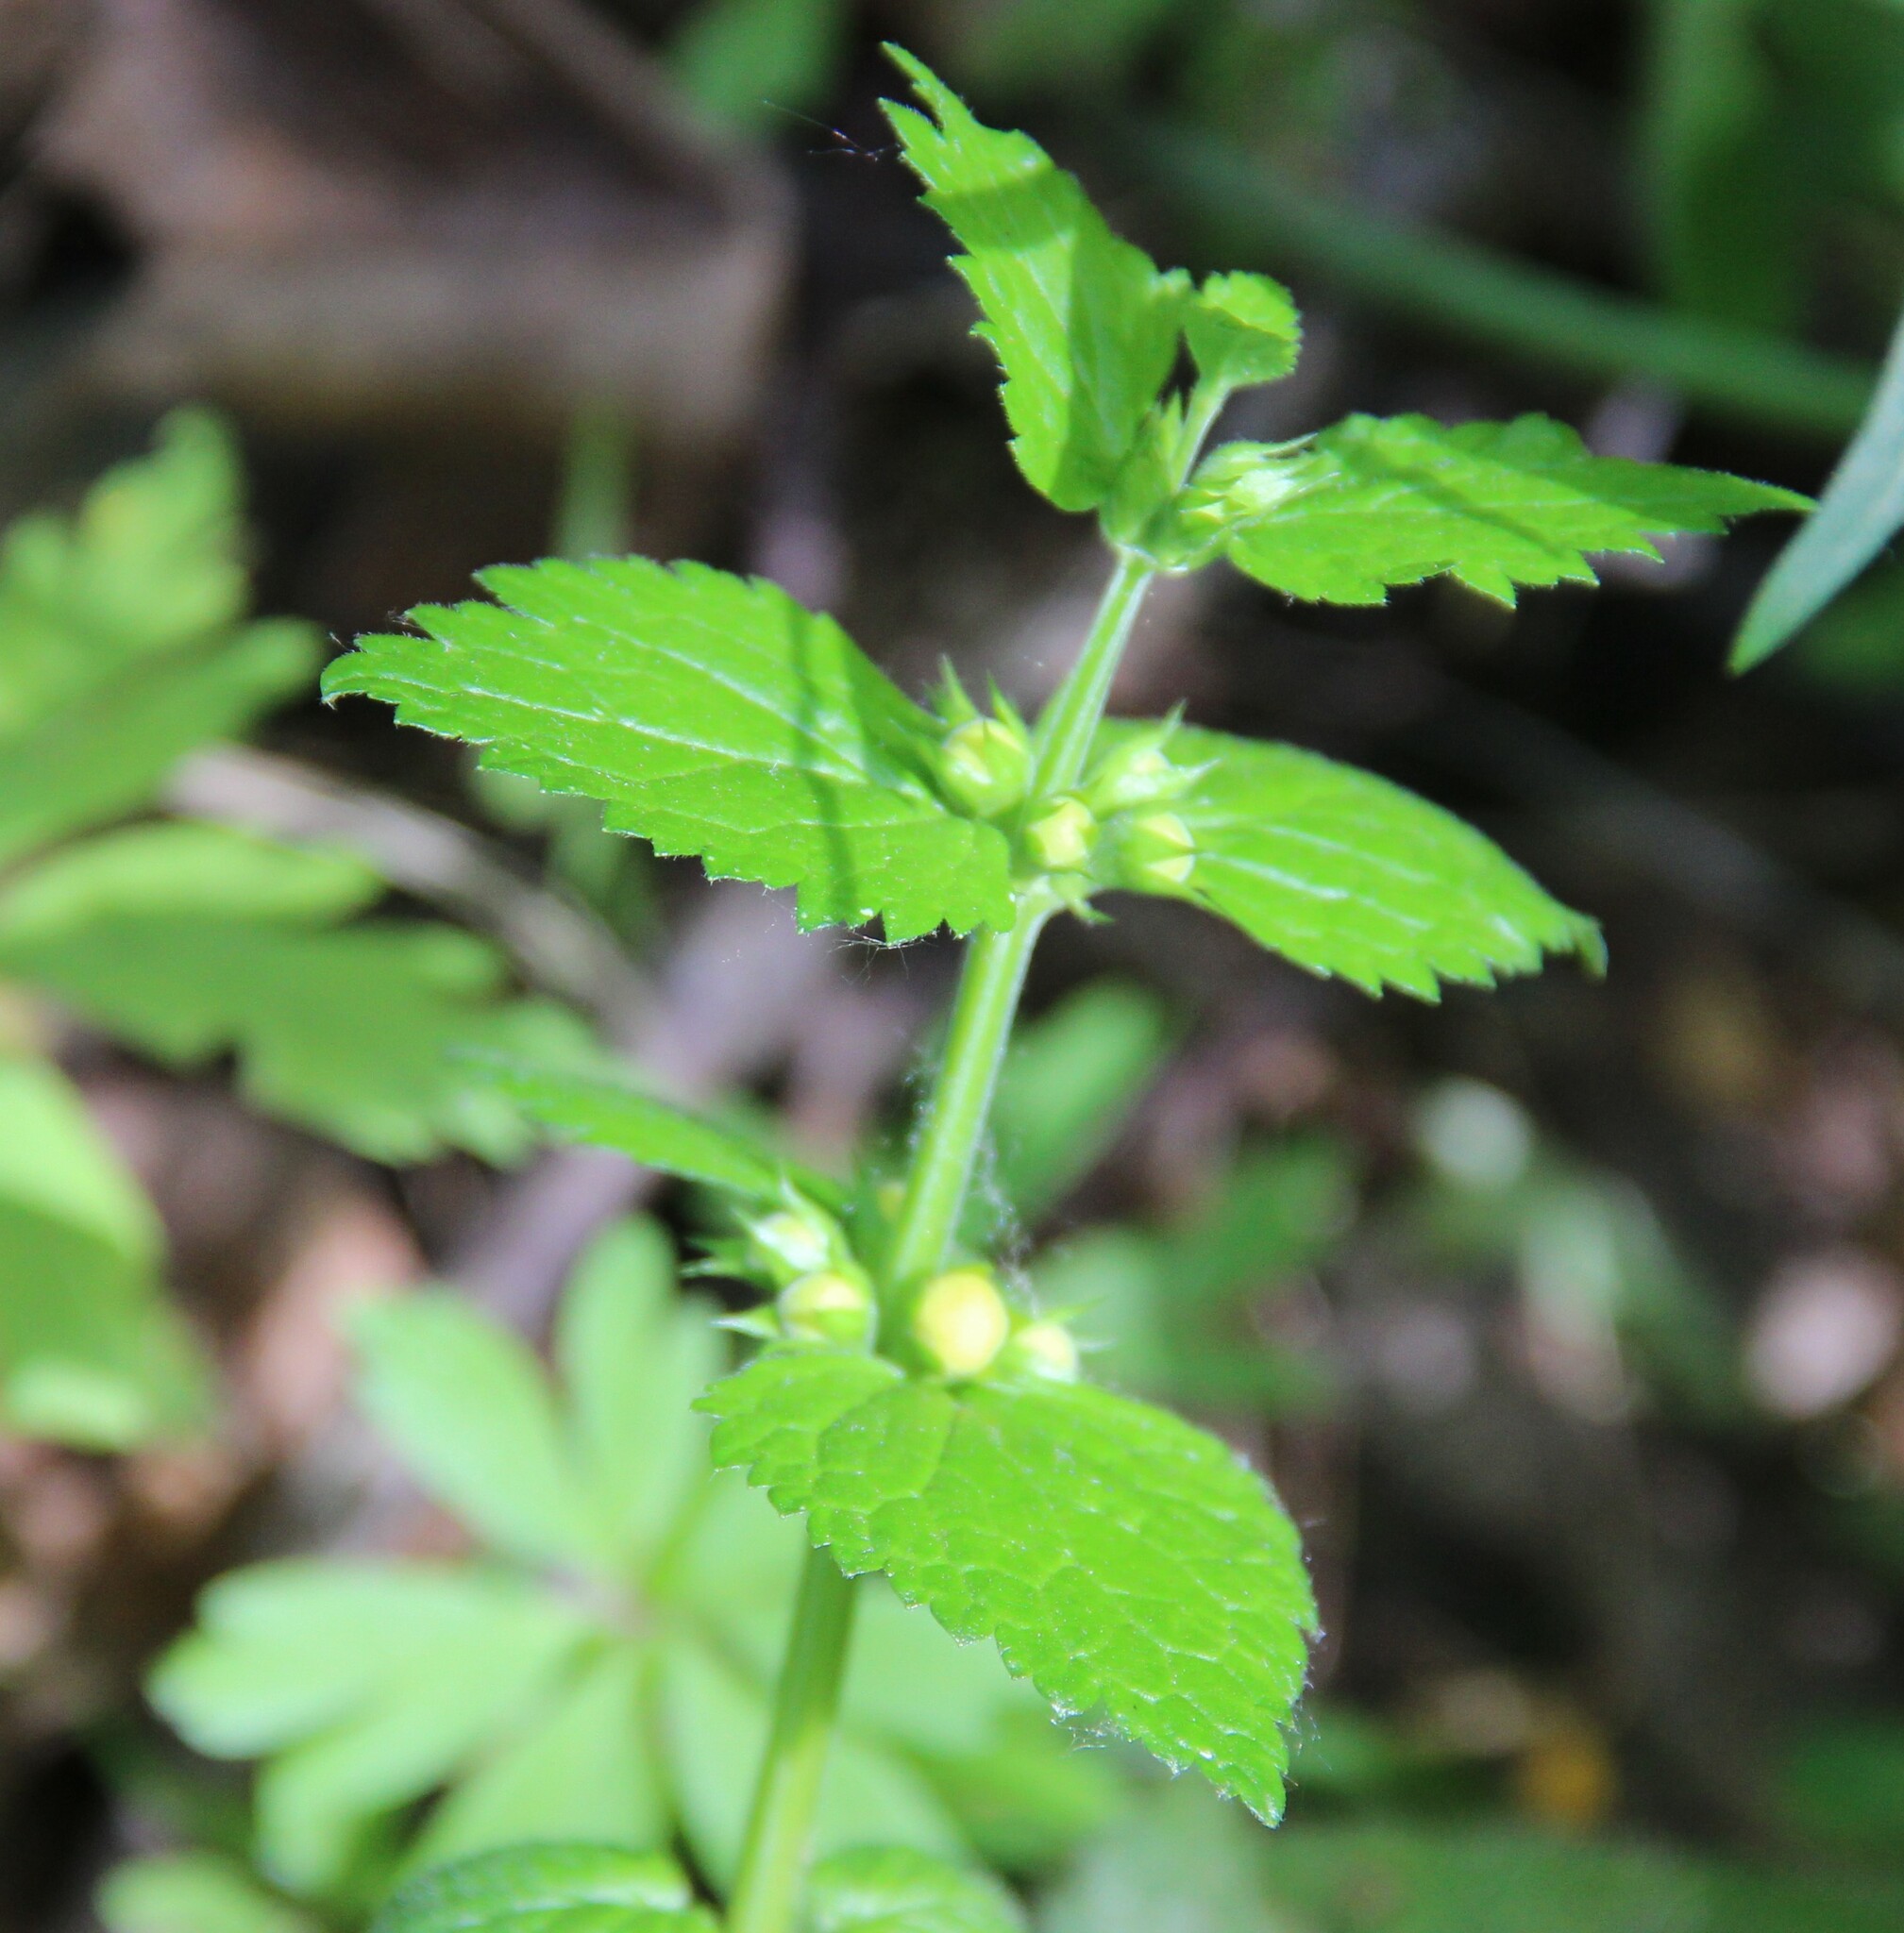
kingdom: Plantae
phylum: Tracheophyta
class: Magnoliopsida
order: Lamiales
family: Lamiaceae
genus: Lamium
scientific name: Lamium galeobdolon
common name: Yellow archangel
